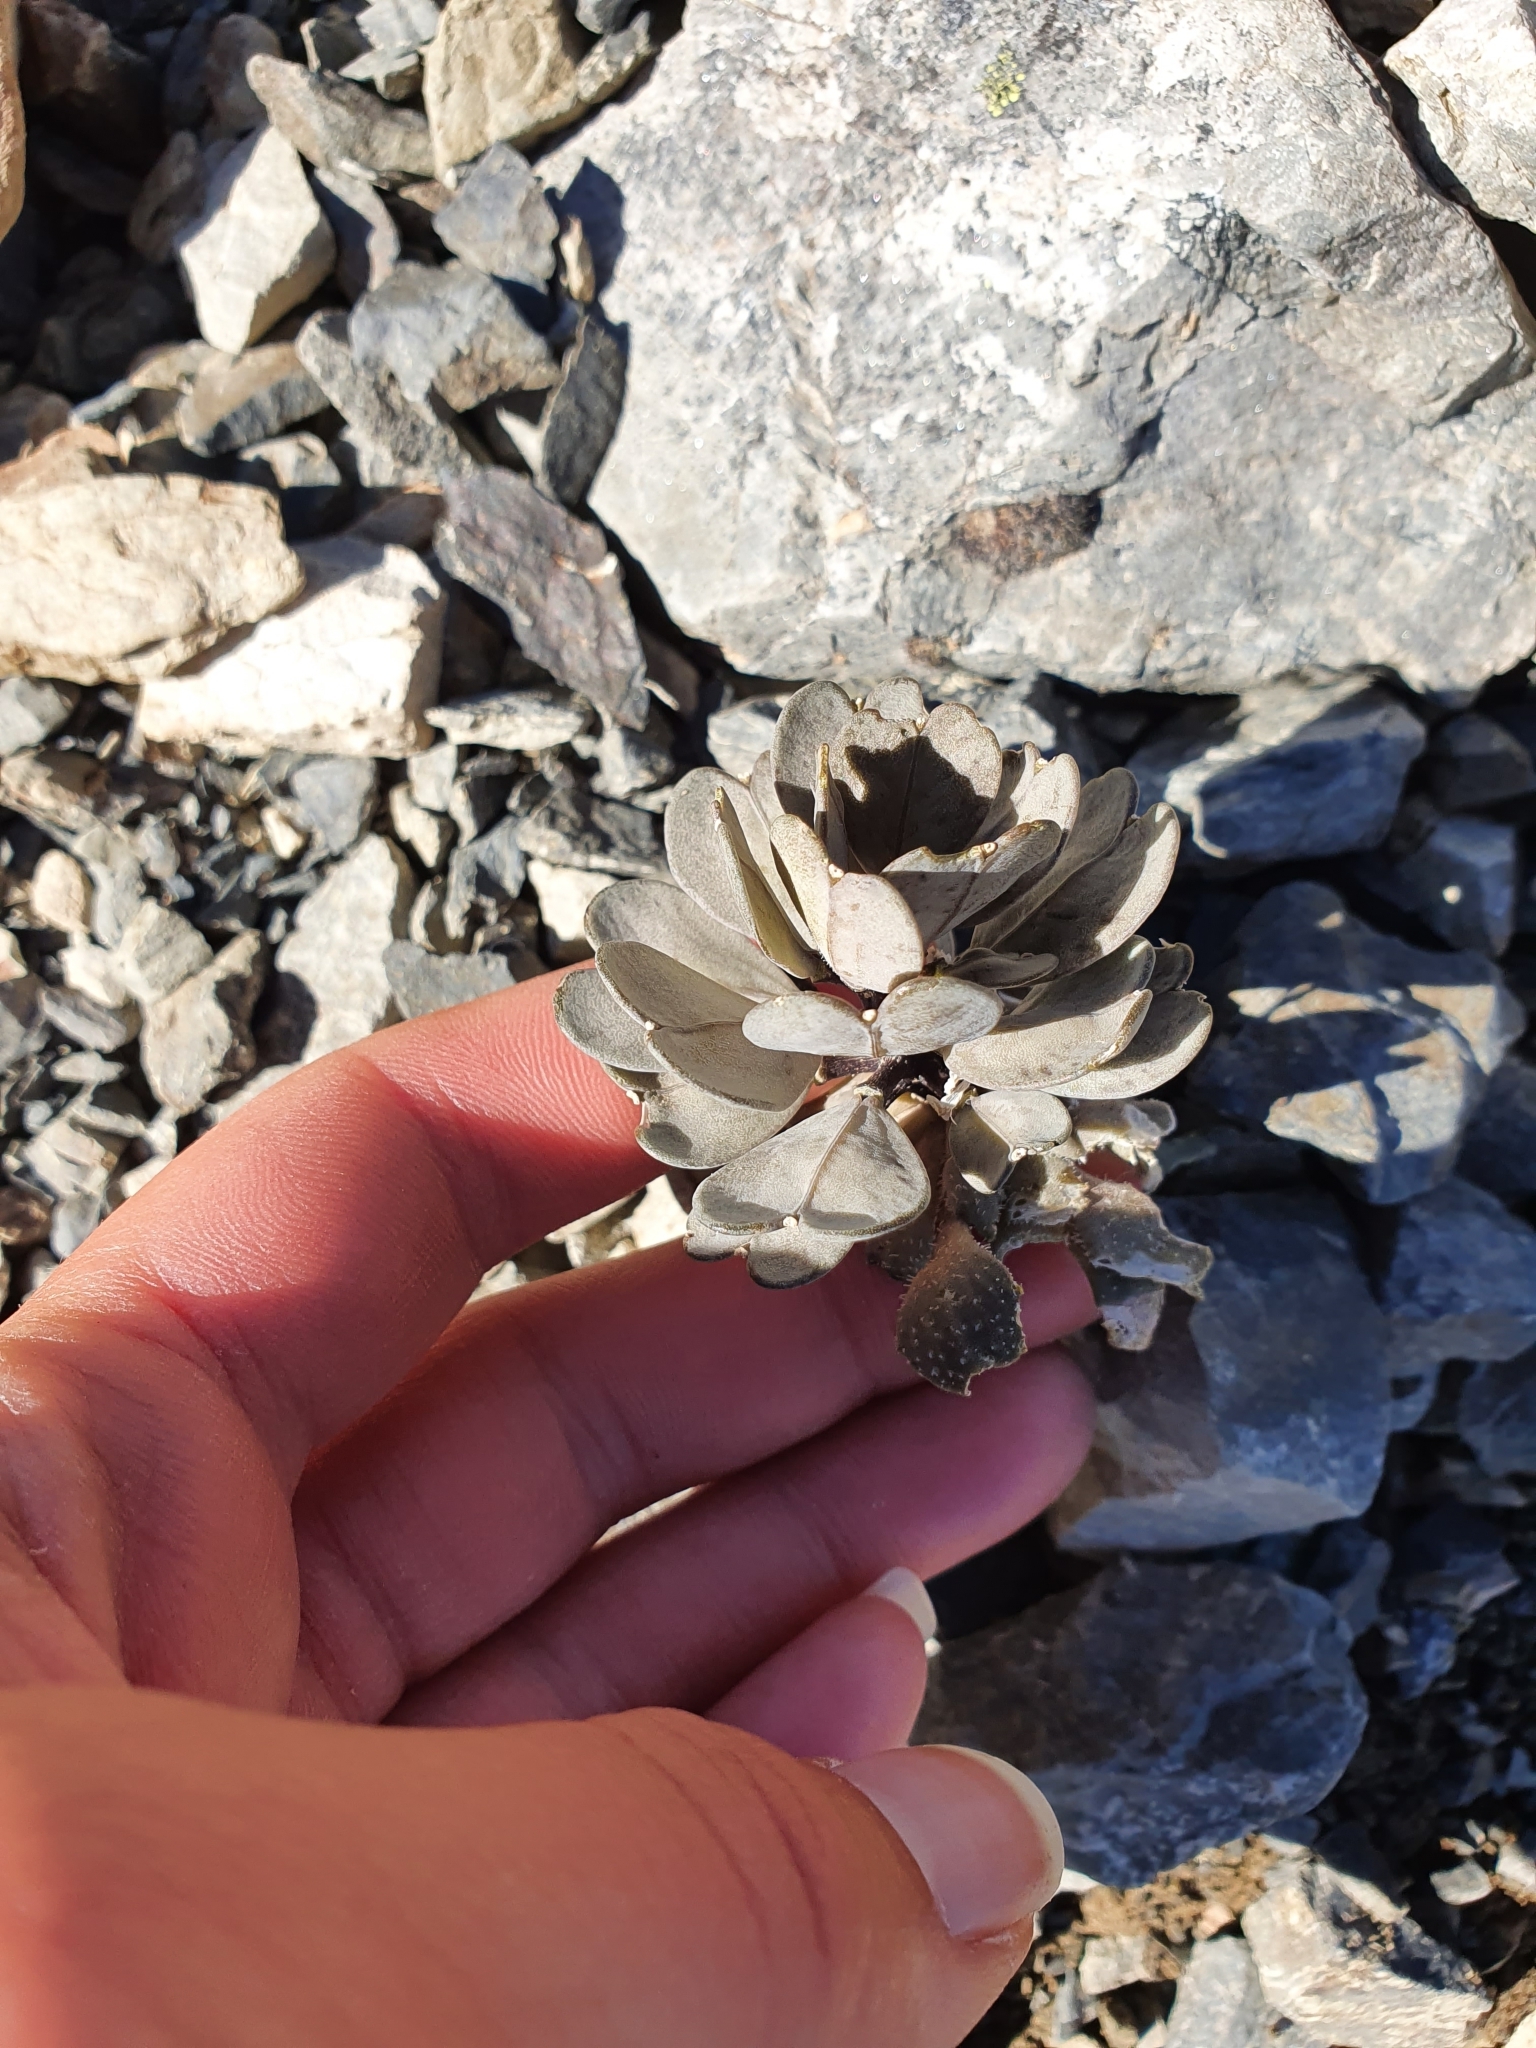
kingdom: Plantae
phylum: Tracheophyta
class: Magnoliopsida
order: Brassicales
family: Brassicaceae
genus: Notothlaspi
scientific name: Notothlaspi rosulatum
